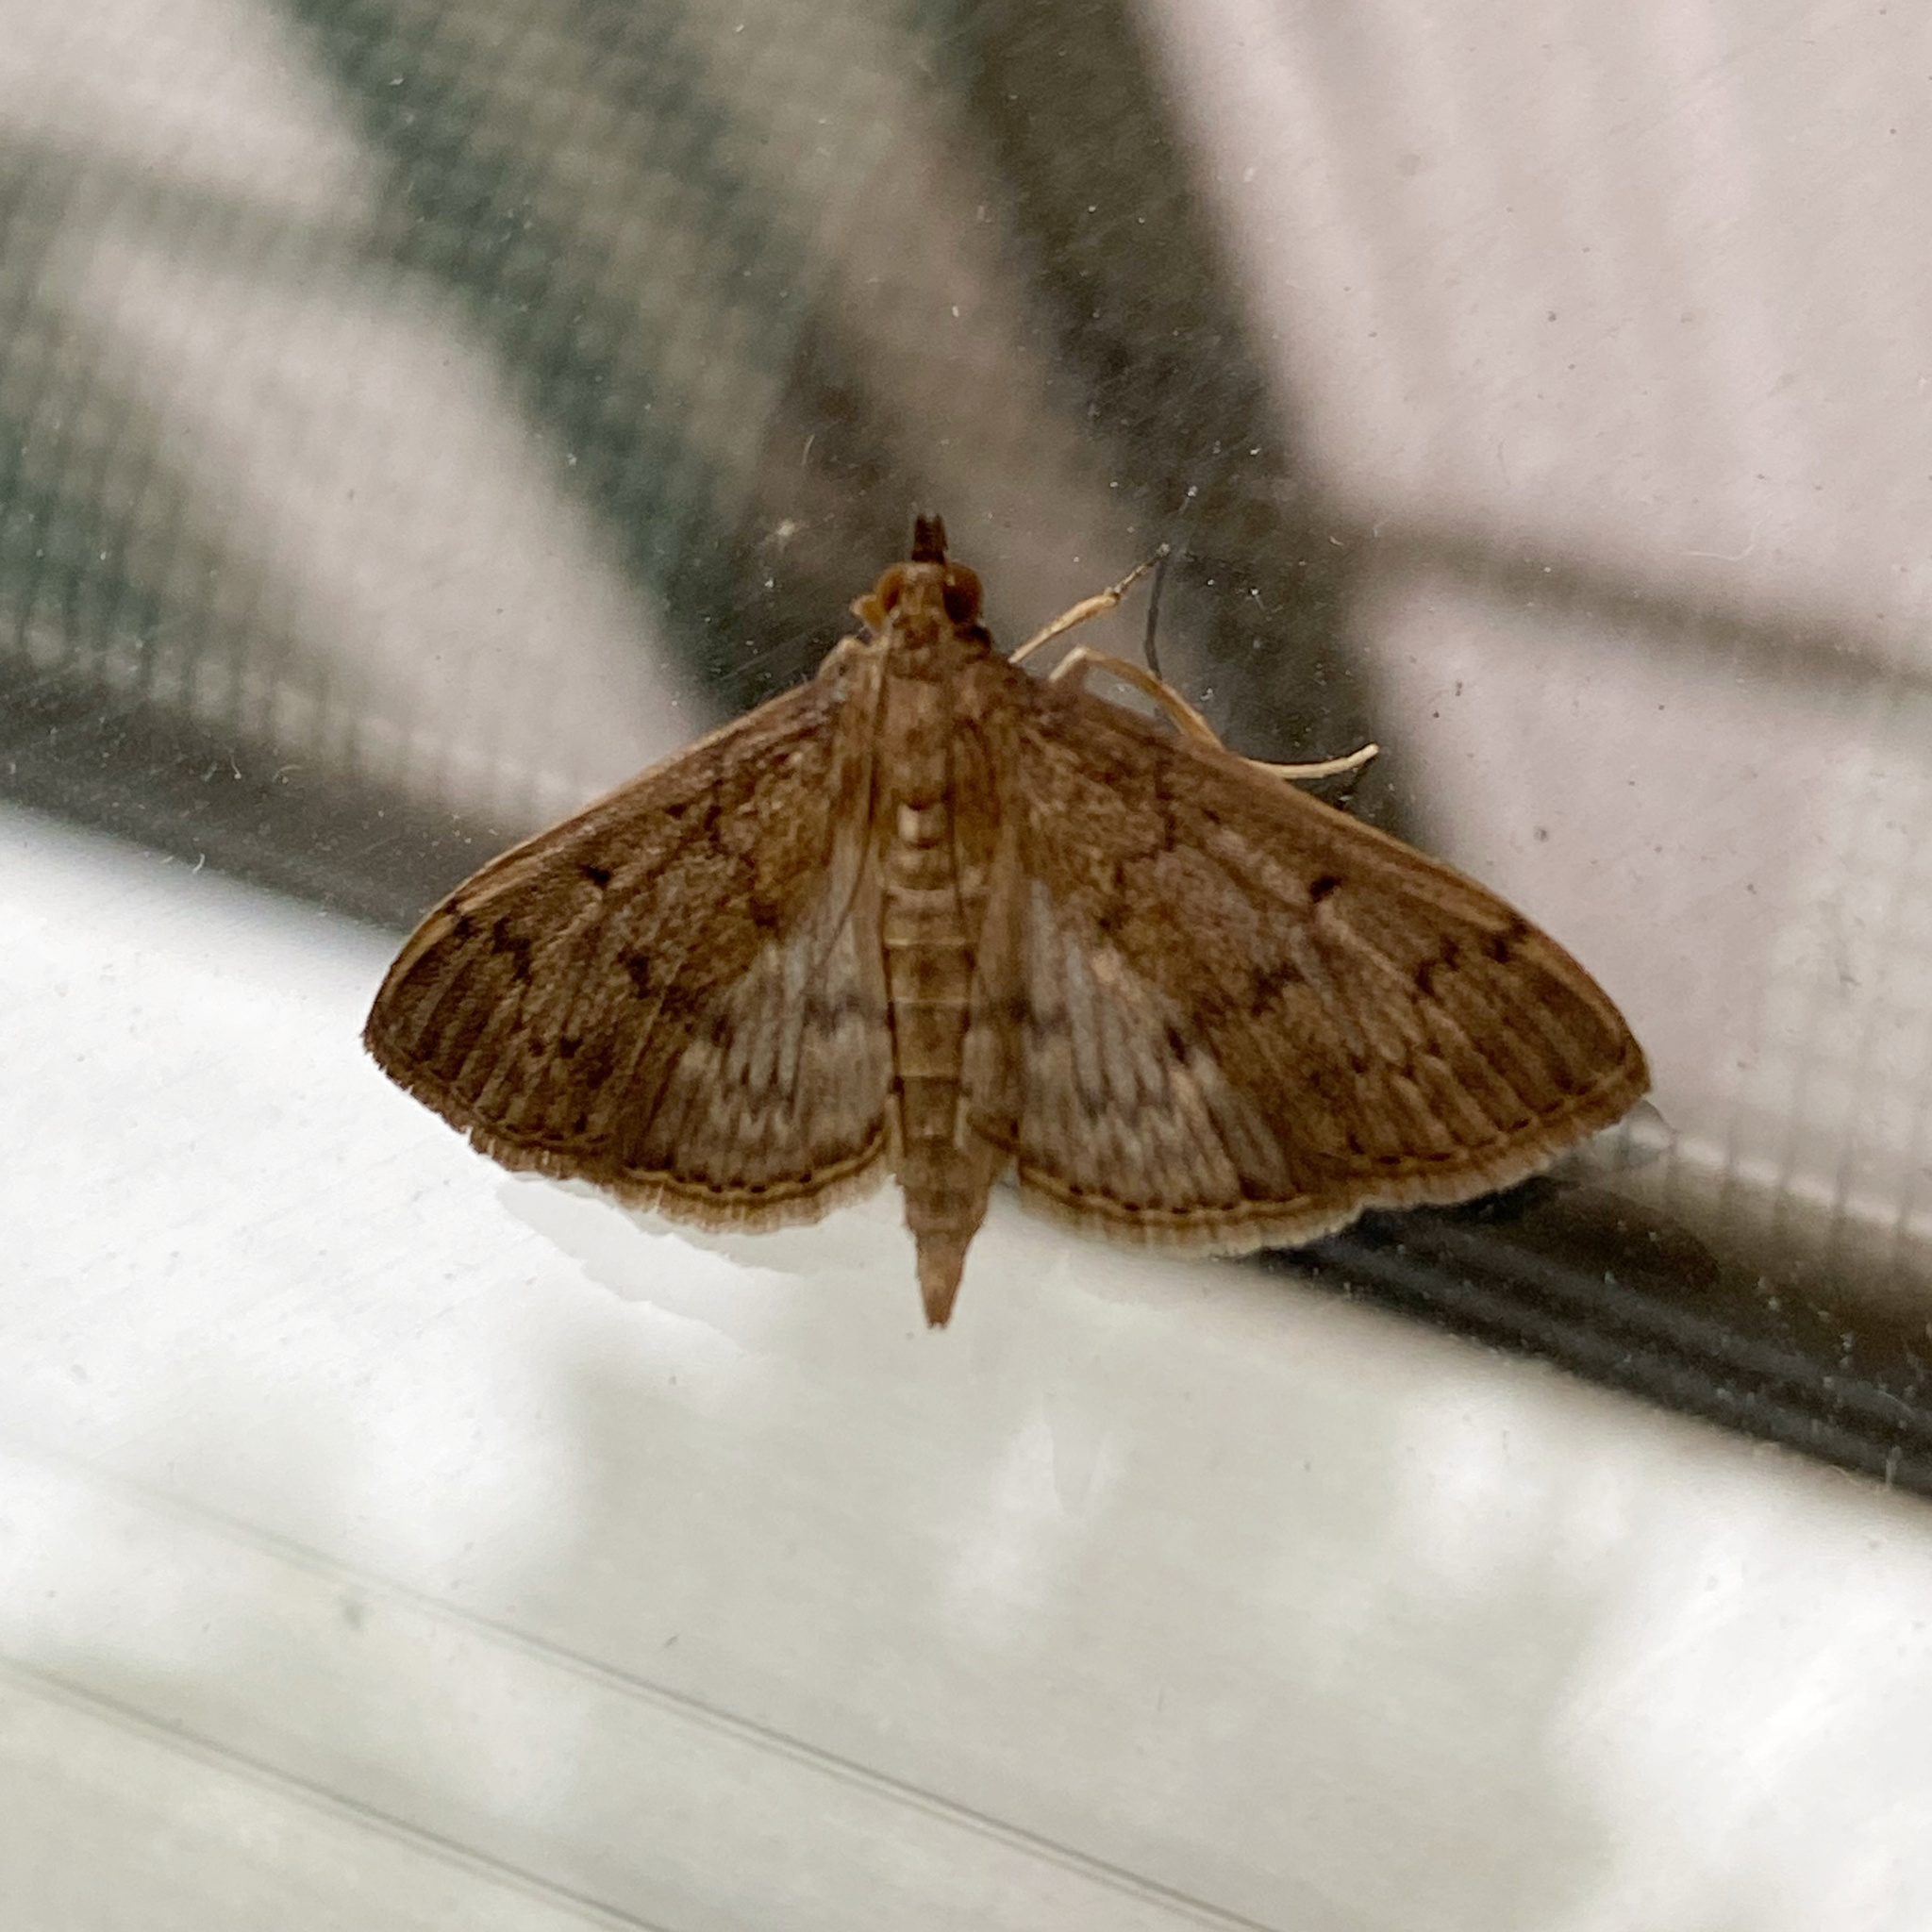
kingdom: Animalia
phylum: Arthropoda
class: Insecta
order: Lepidoptera
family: Crambidae
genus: Herpetogramma
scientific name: Herpetogramma licarsisalis
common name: Grass webworm
